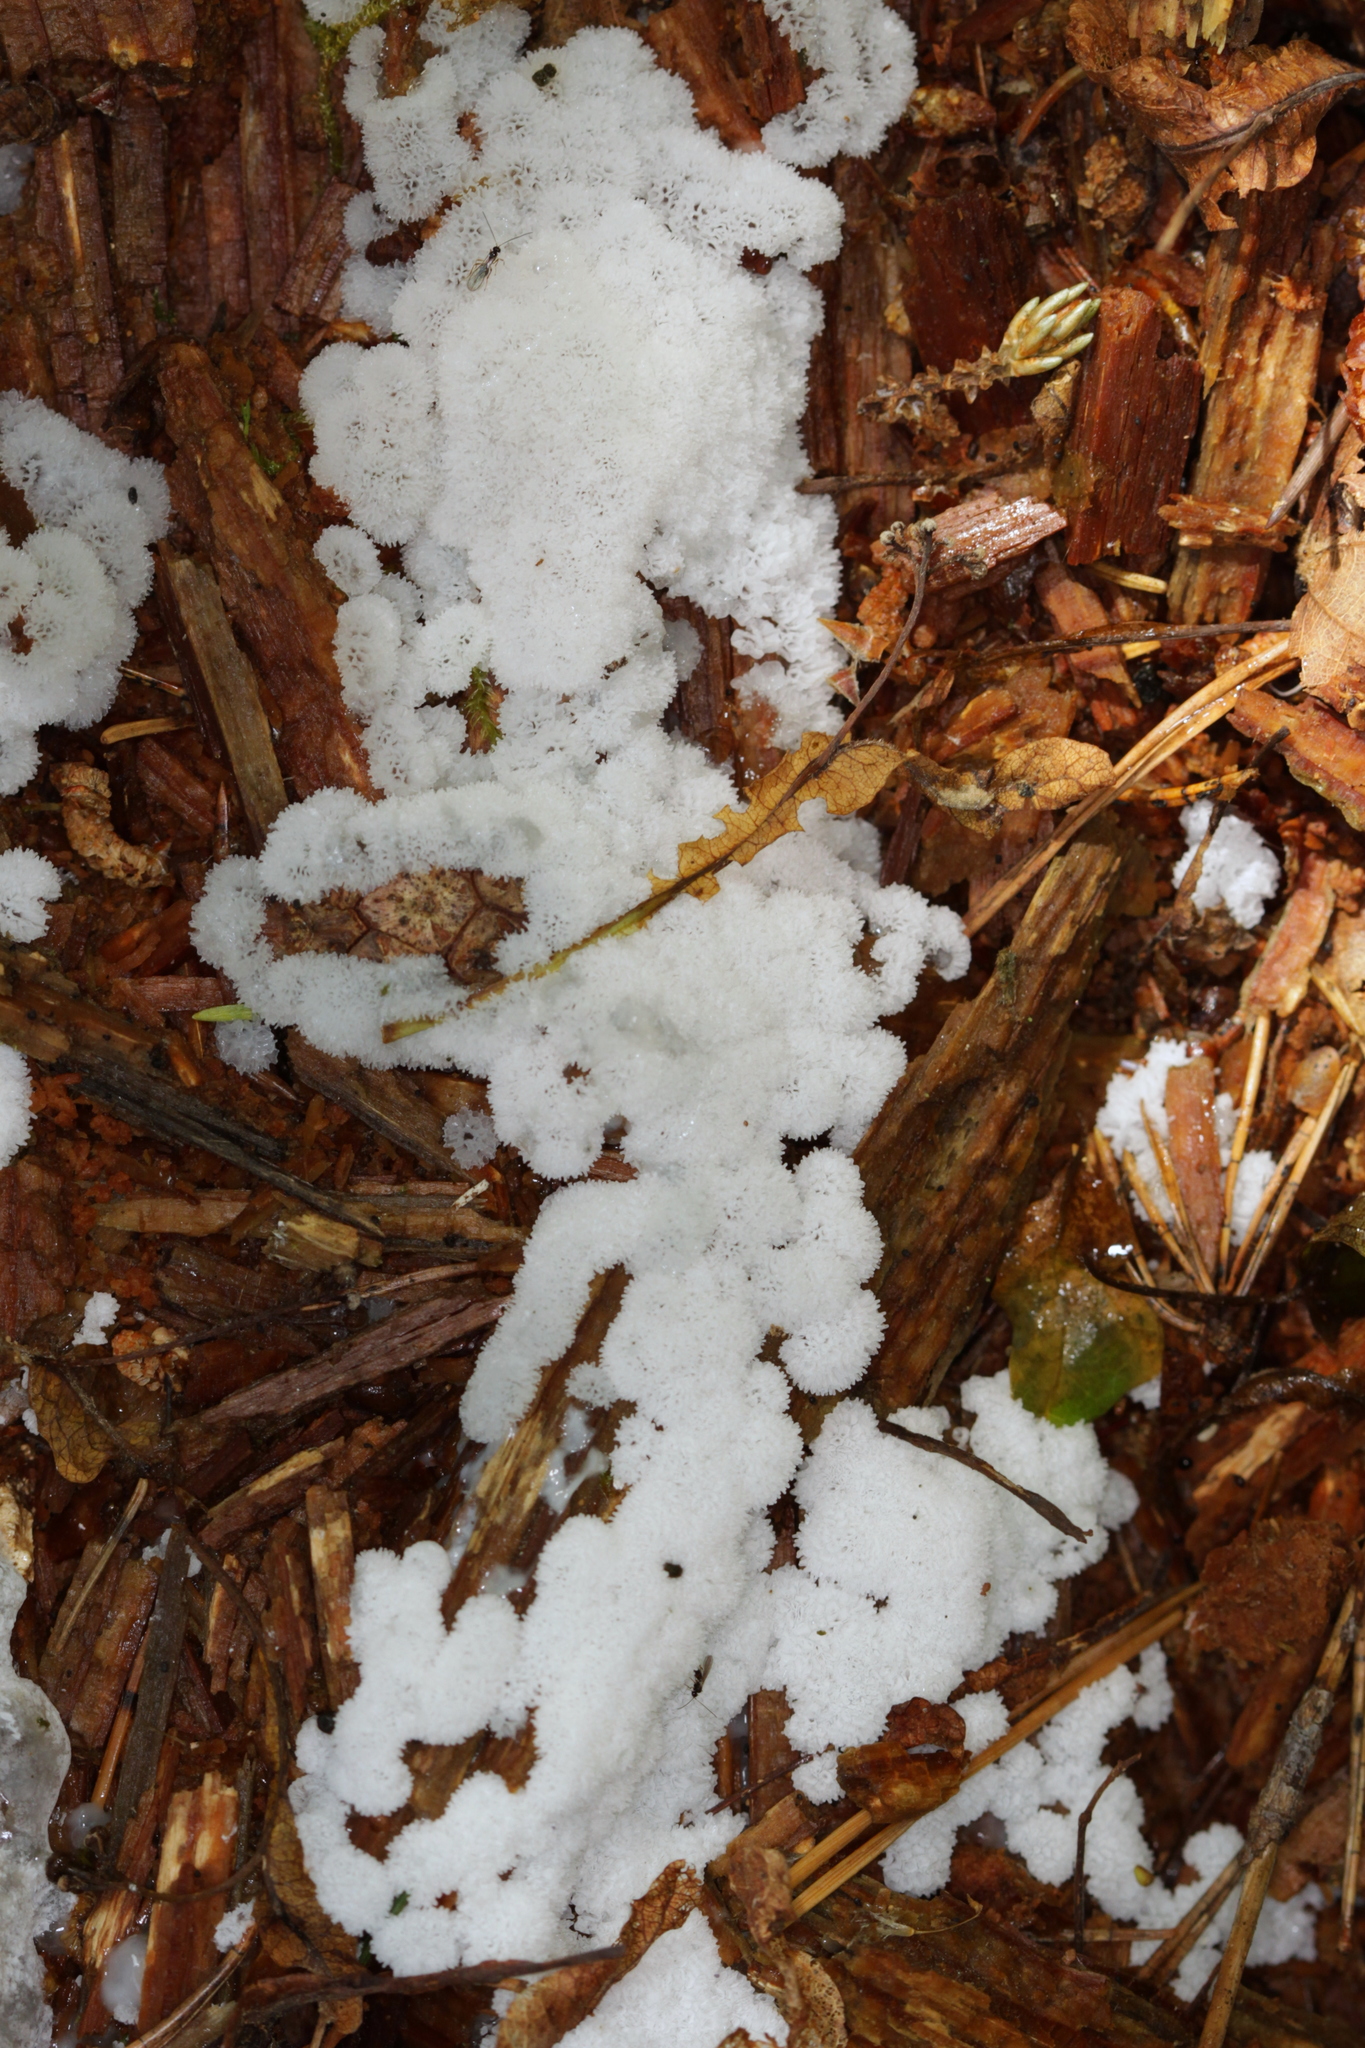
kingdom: Protozoa
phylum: Mycetozoa
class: Protosteliomycetes
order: Ceratiomyxales
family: Ceratiomyxaceae
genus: Ceratiomyxa
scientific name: Ceratiomyxa fruticulosa
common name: Honeycomb coral slime mold
